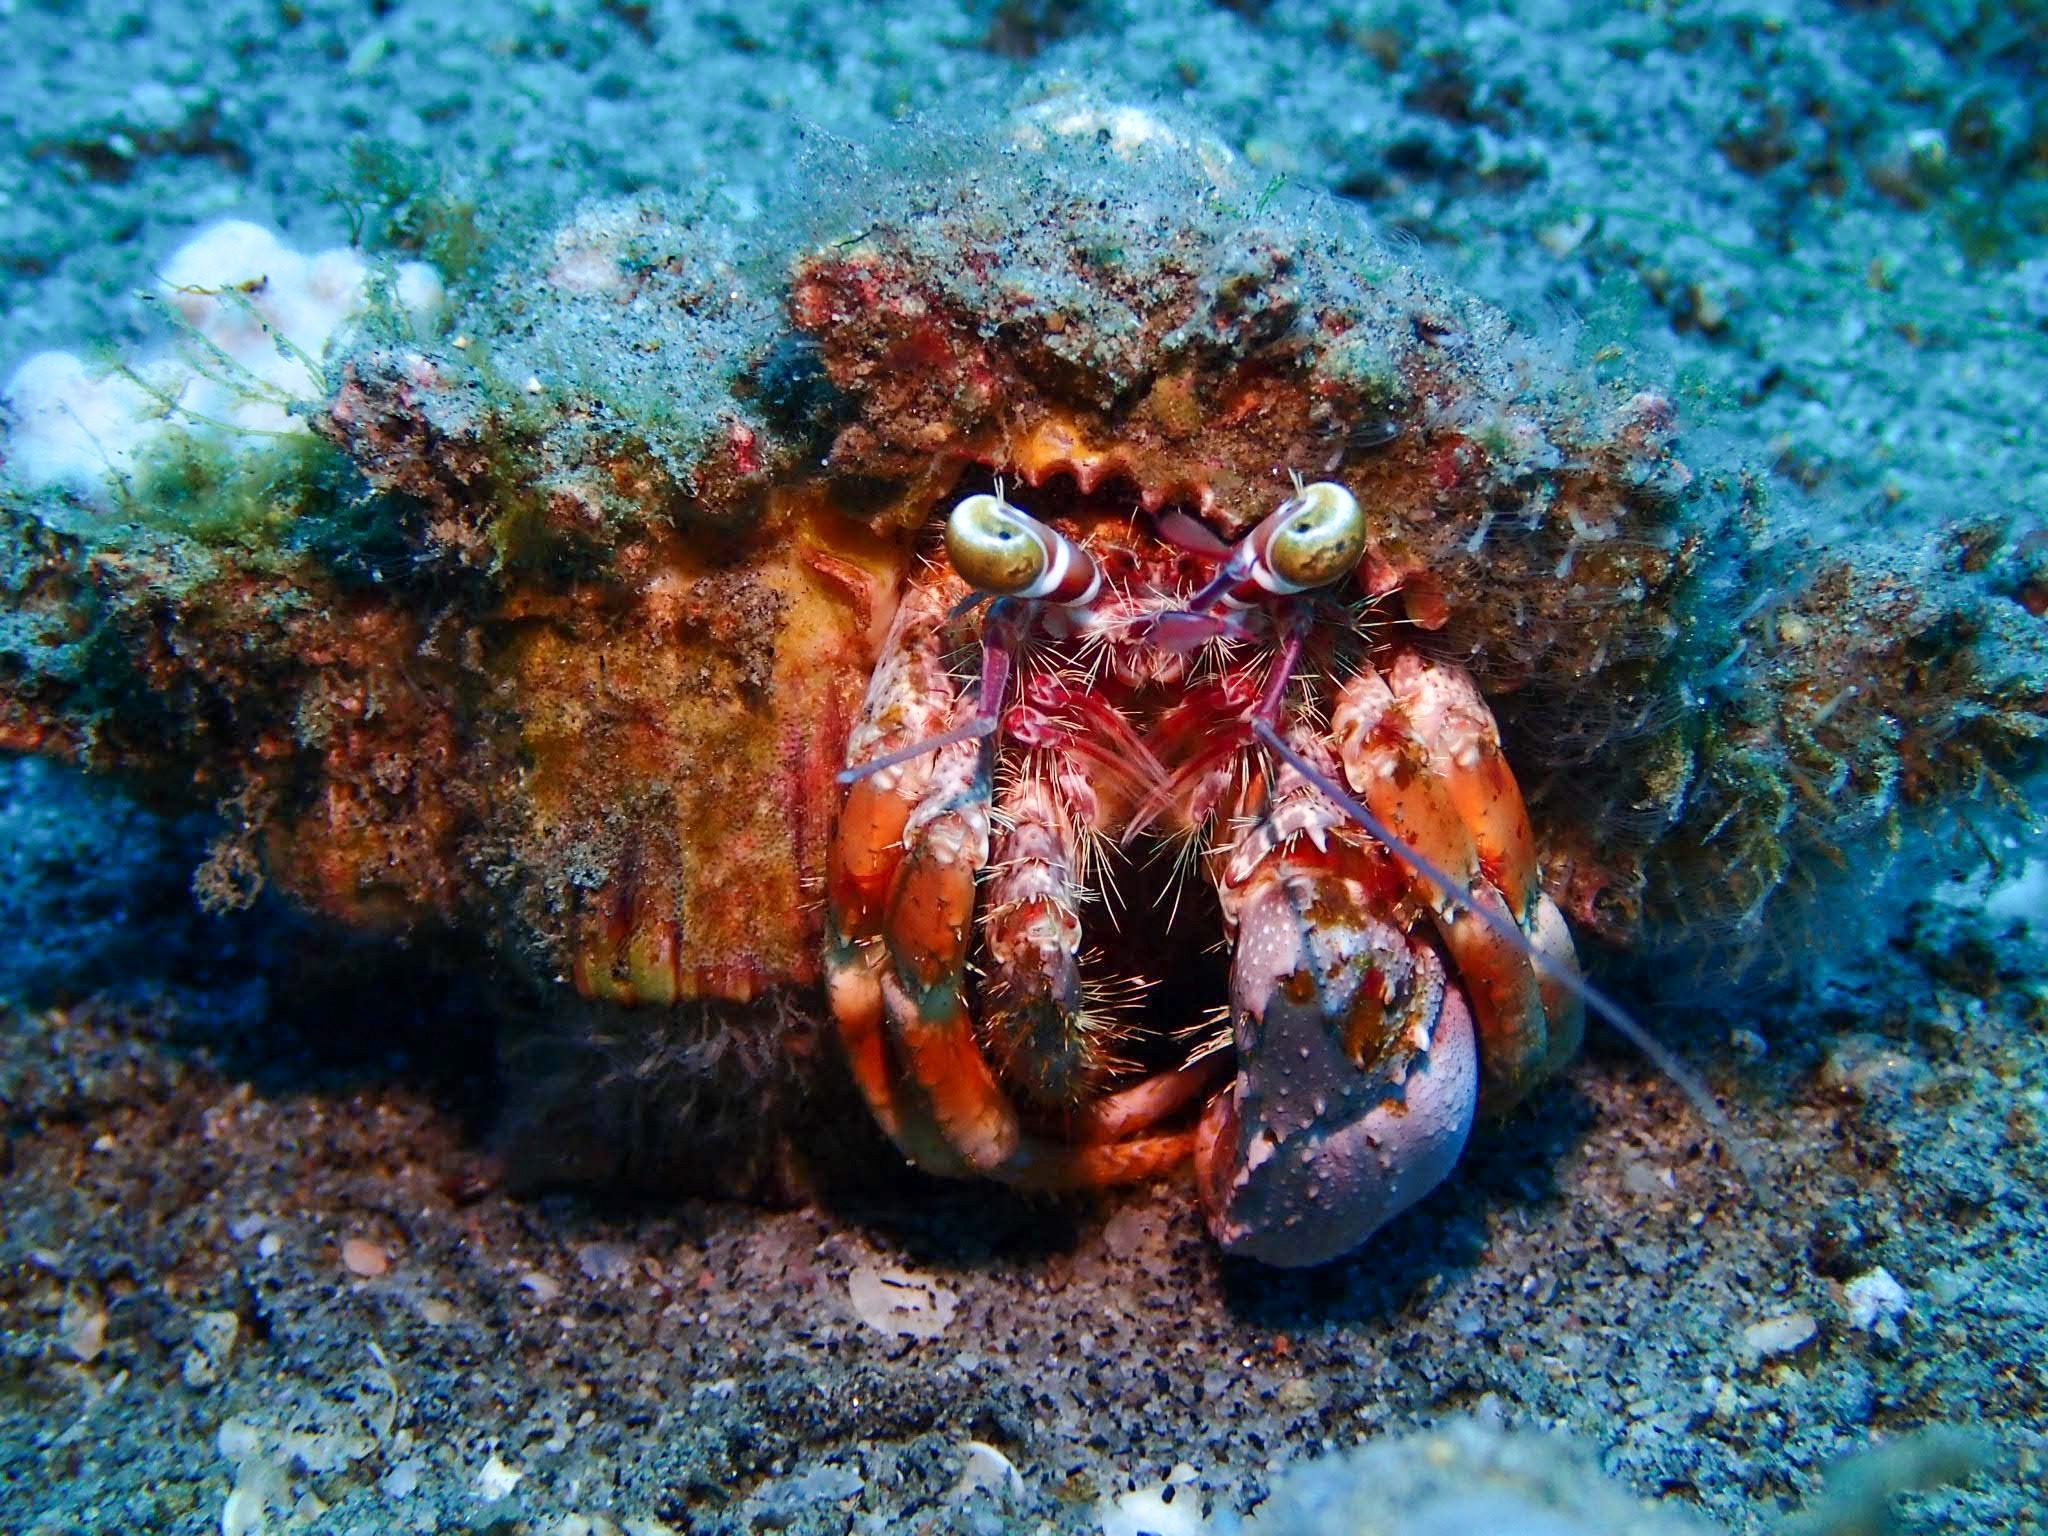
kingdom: Animalia
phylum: Arthropoda
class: Malacostraca
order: Decapoda
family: Diogenidae
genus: Dardanus
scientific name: Dardanus pedunculatus
